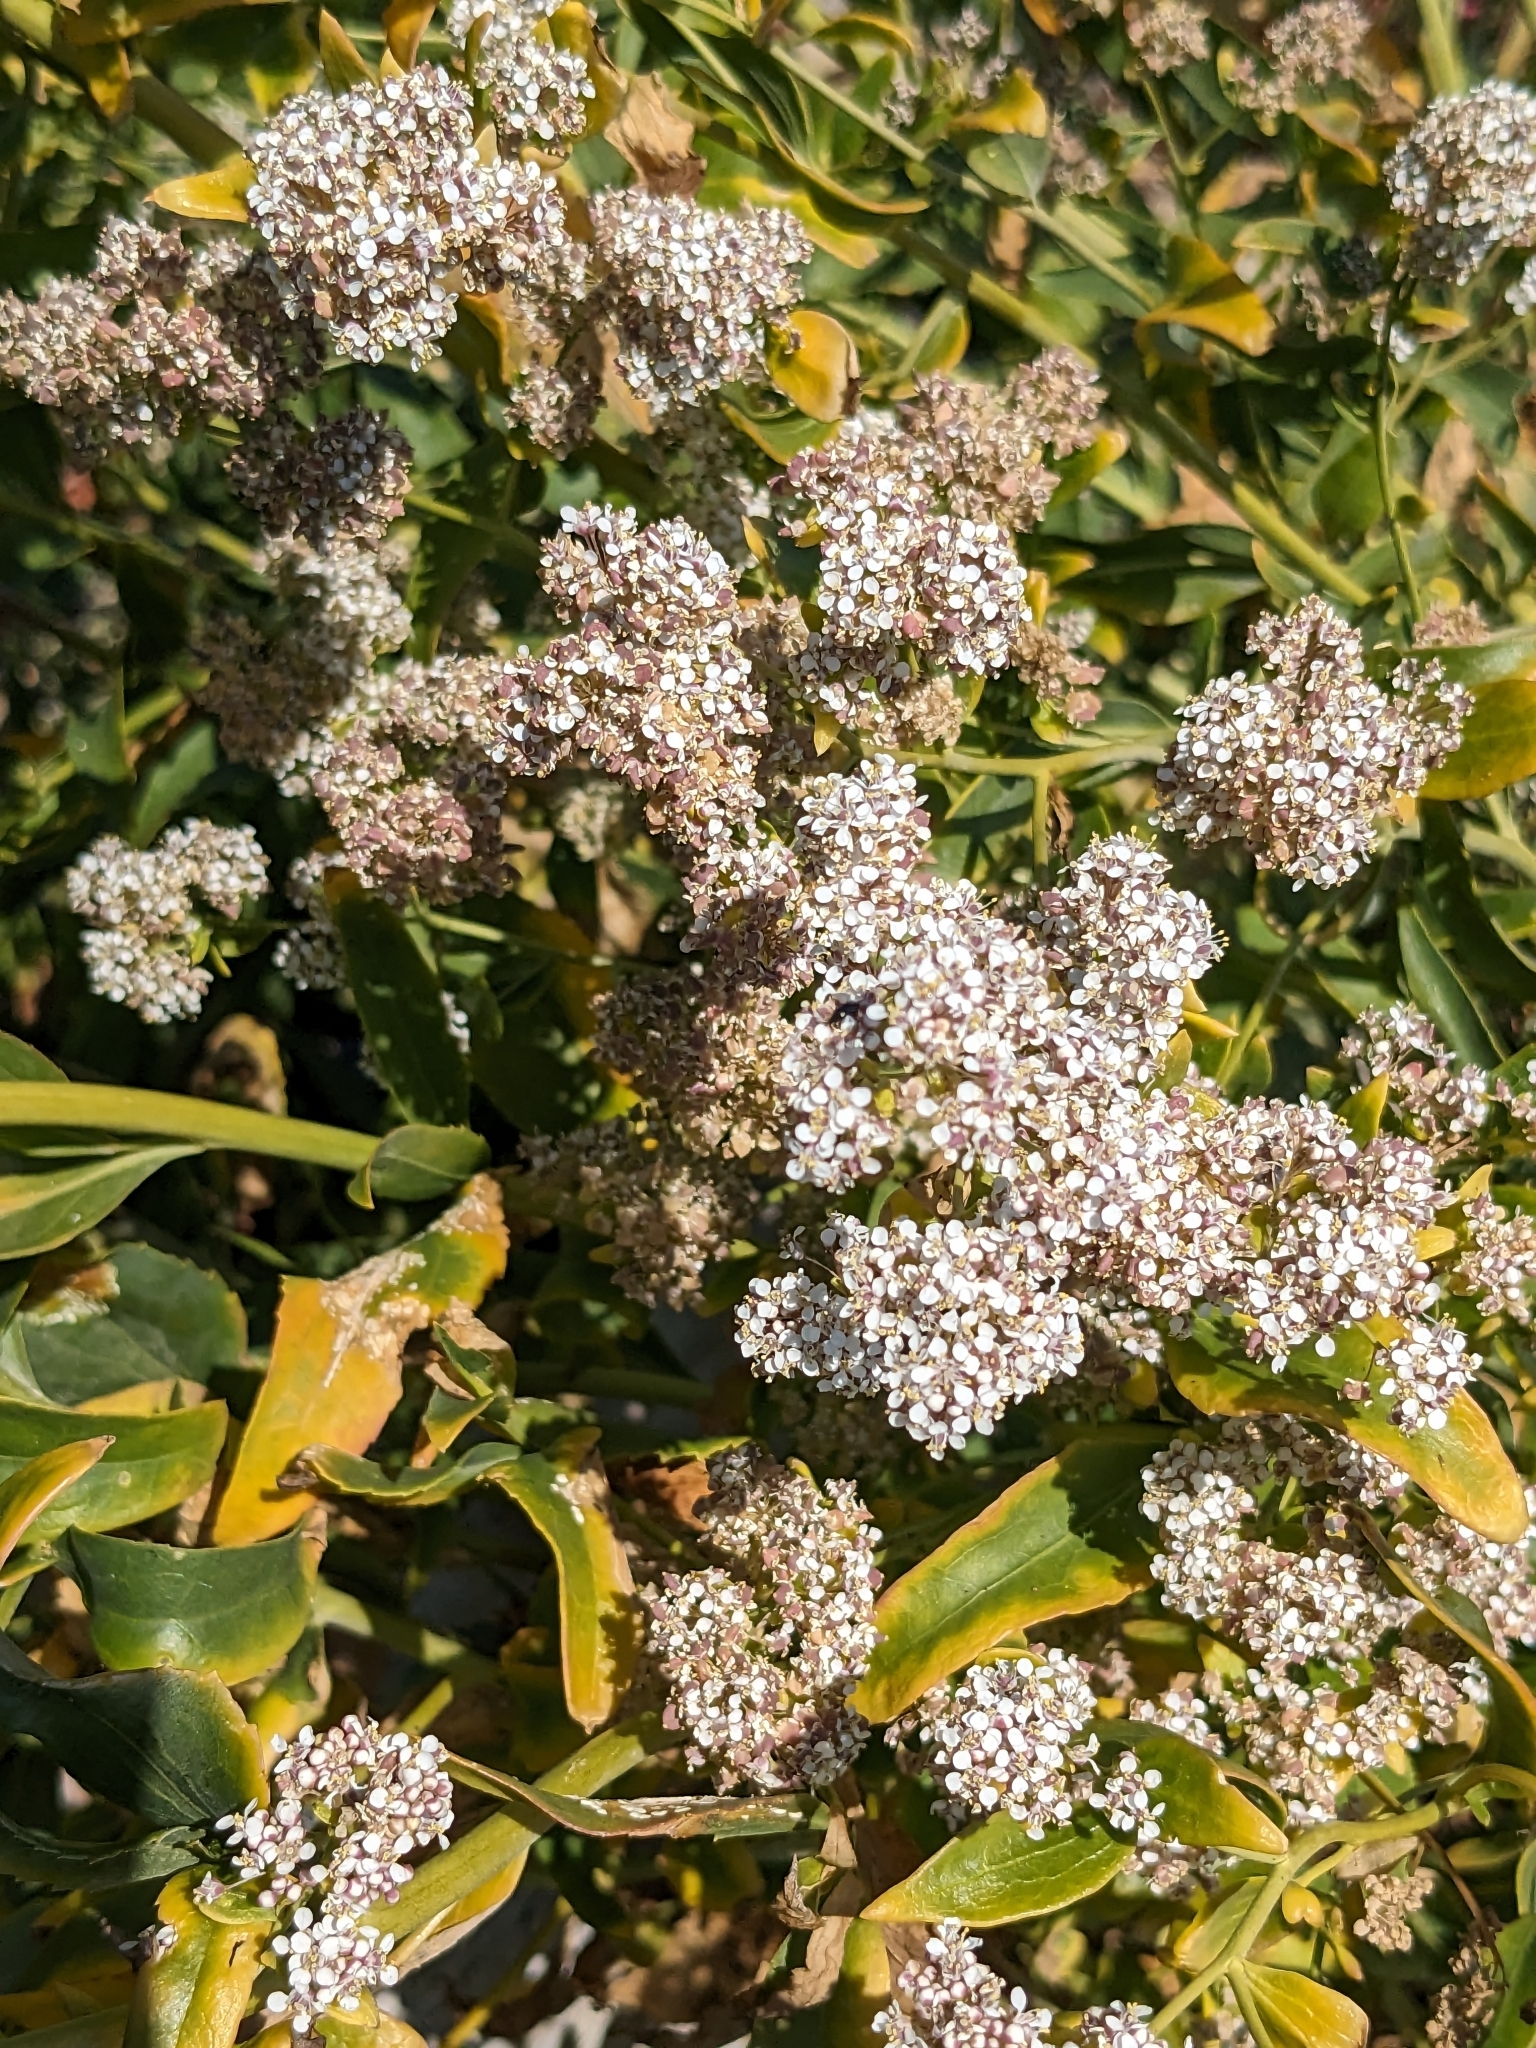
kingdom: Plantae
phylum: Tracheophyta
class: Magnoliopsida
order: Brassicales
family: Brassicaceae
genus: Lepidium
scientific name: Lepidium latifolium
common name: Dittander
